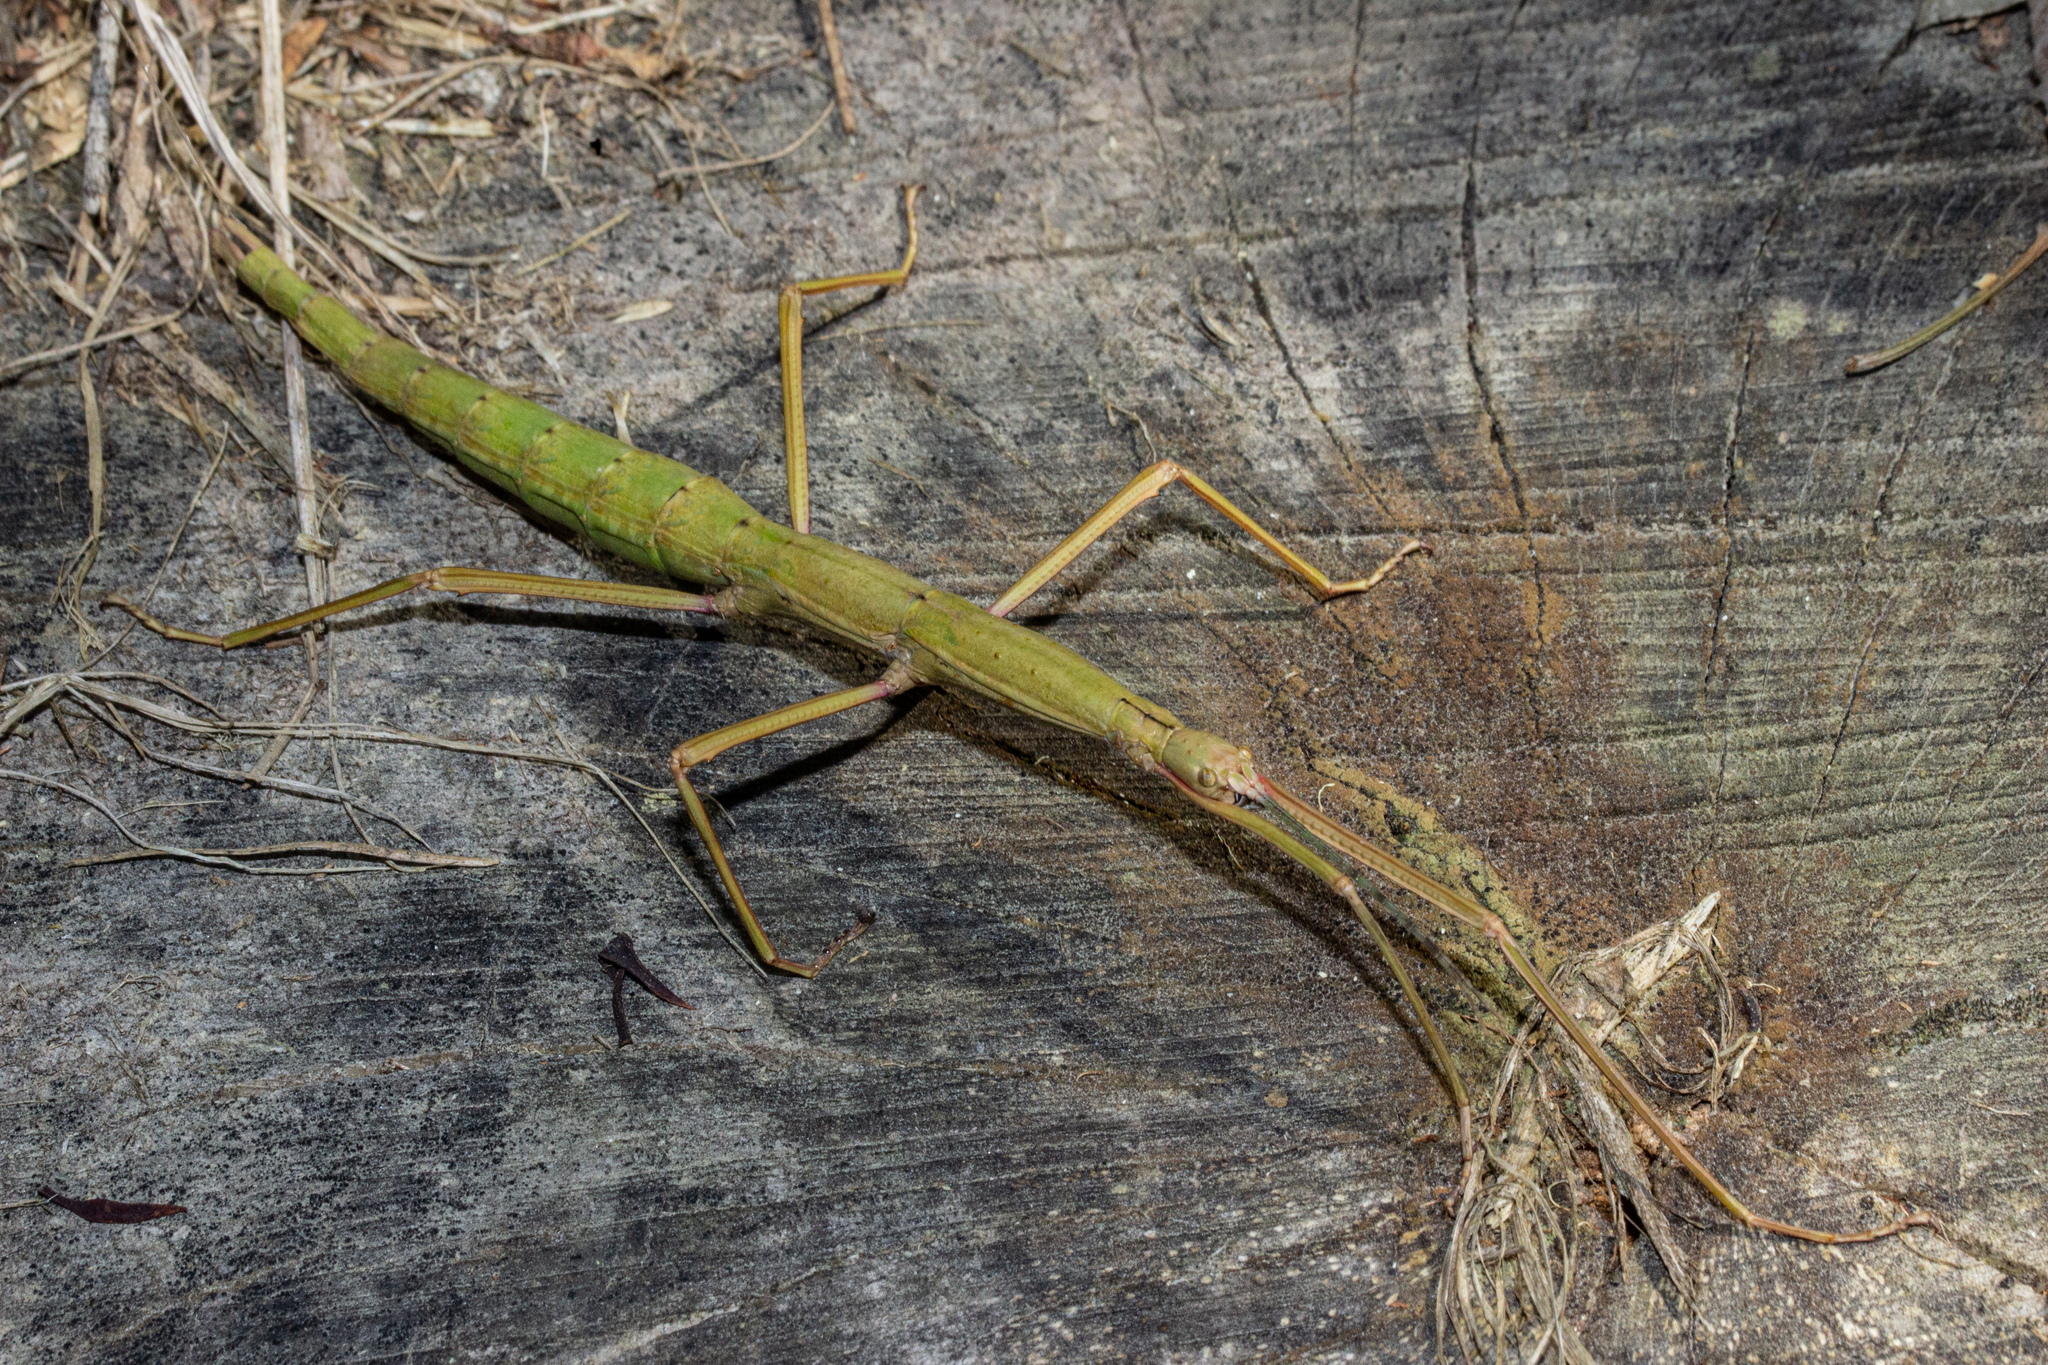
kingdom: Animalia
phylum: Arthropoda
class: Insecta
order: Phasmida
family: Phasmatidae
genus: Acanthoxyla
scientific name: Acanthoxyla inermis
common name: Unarmed stick insect
